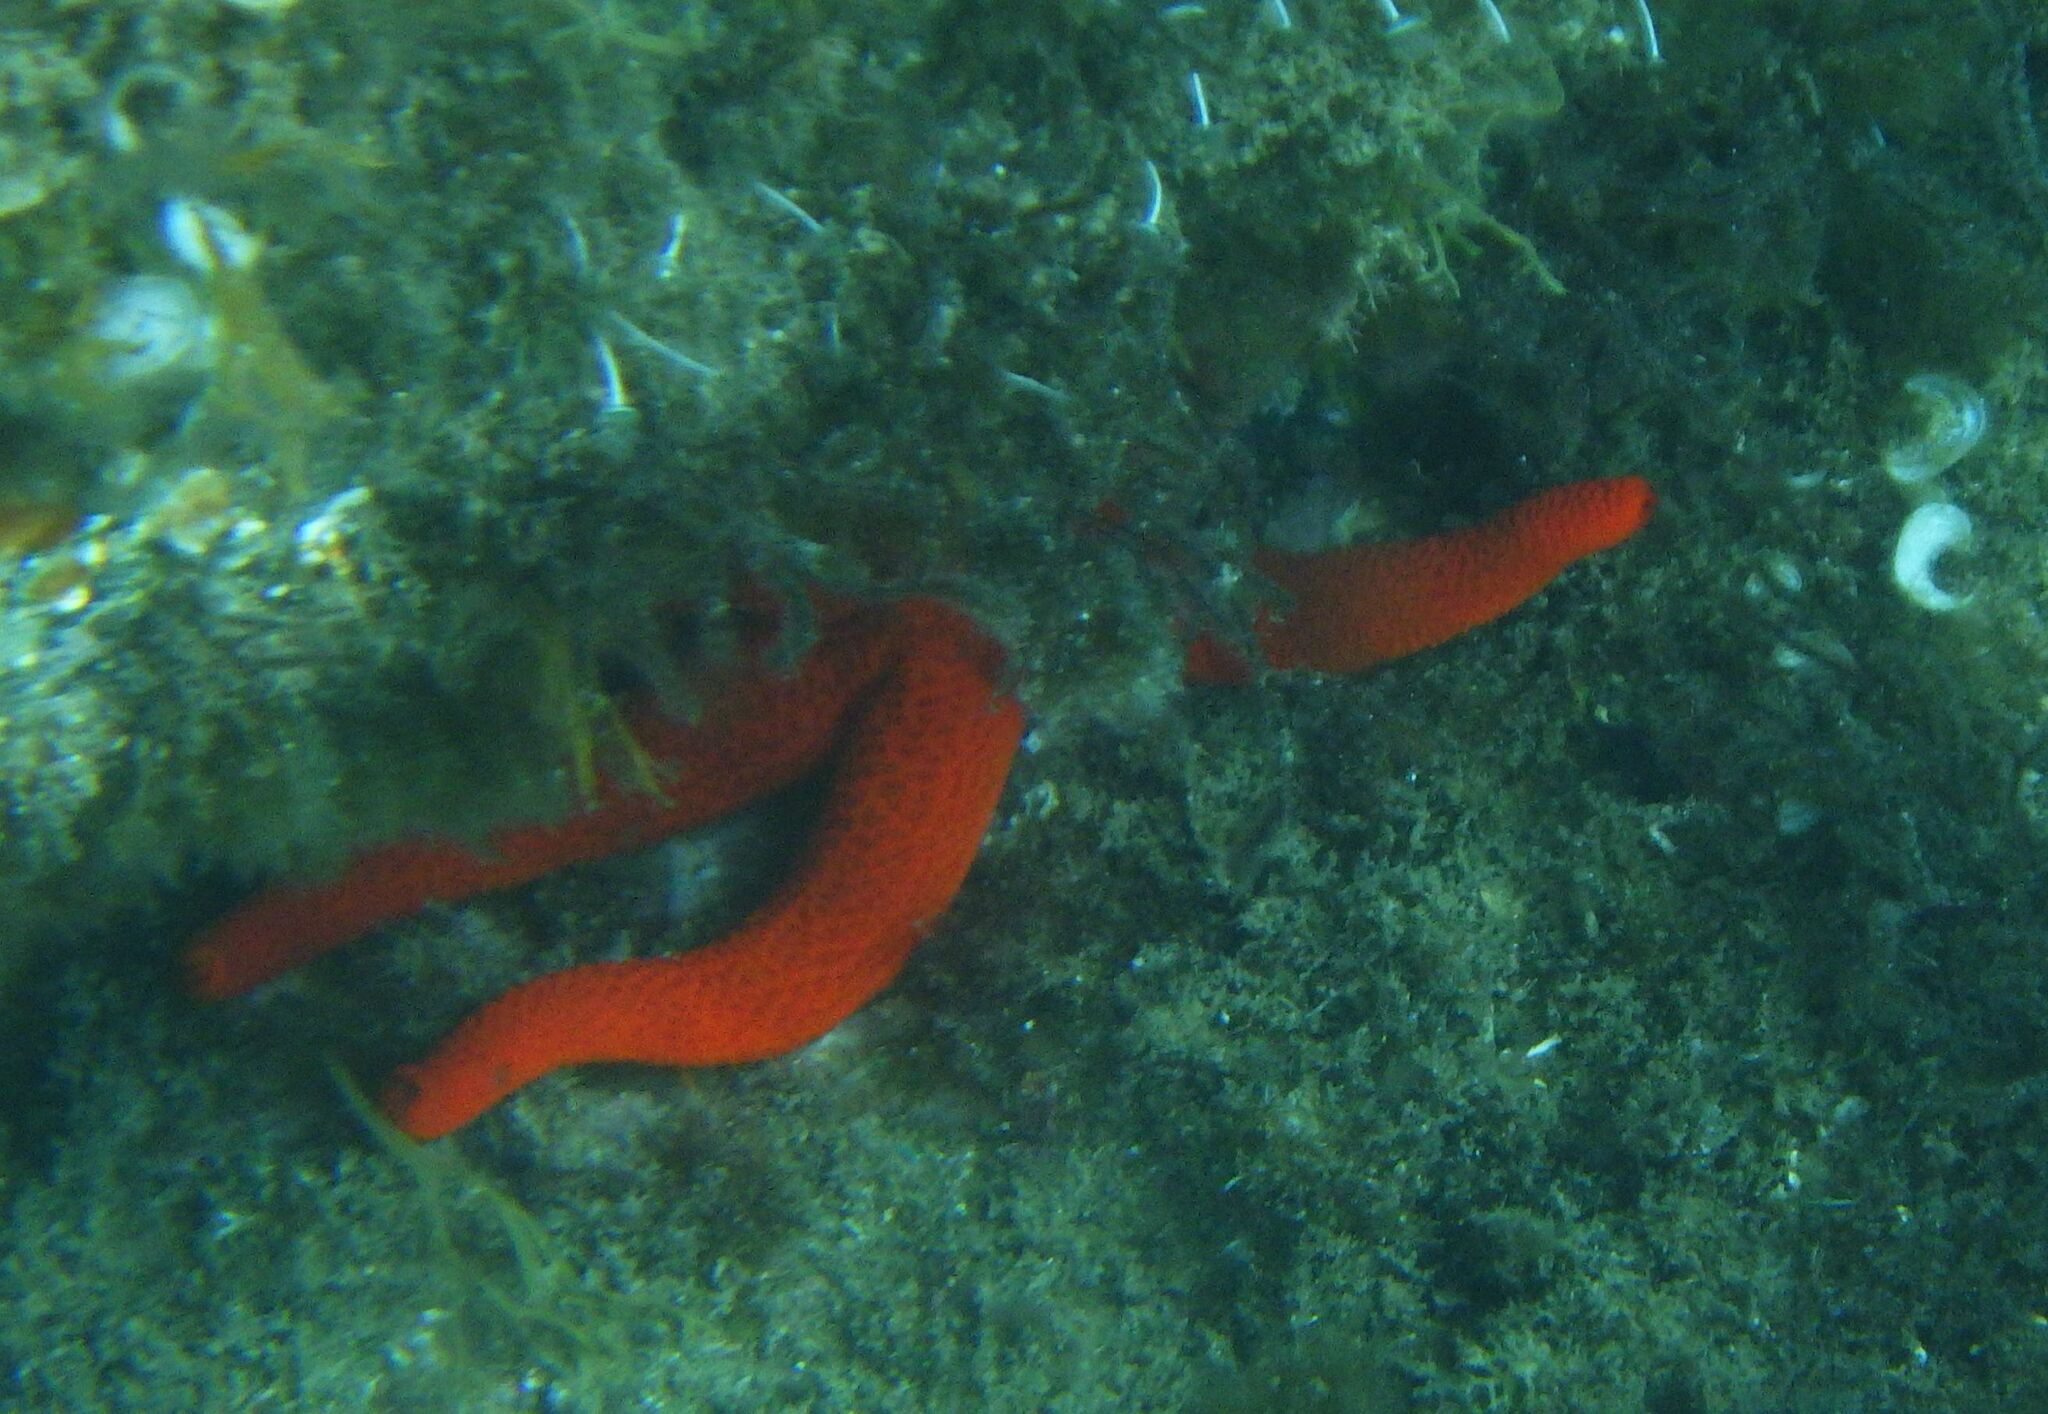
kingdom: Animalia
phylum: Echinodermata
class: Asteroidea
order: Spinulosida
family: Echinasteridae
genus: Echinaster
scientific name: Echinaster sepositus
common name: Red starfish
